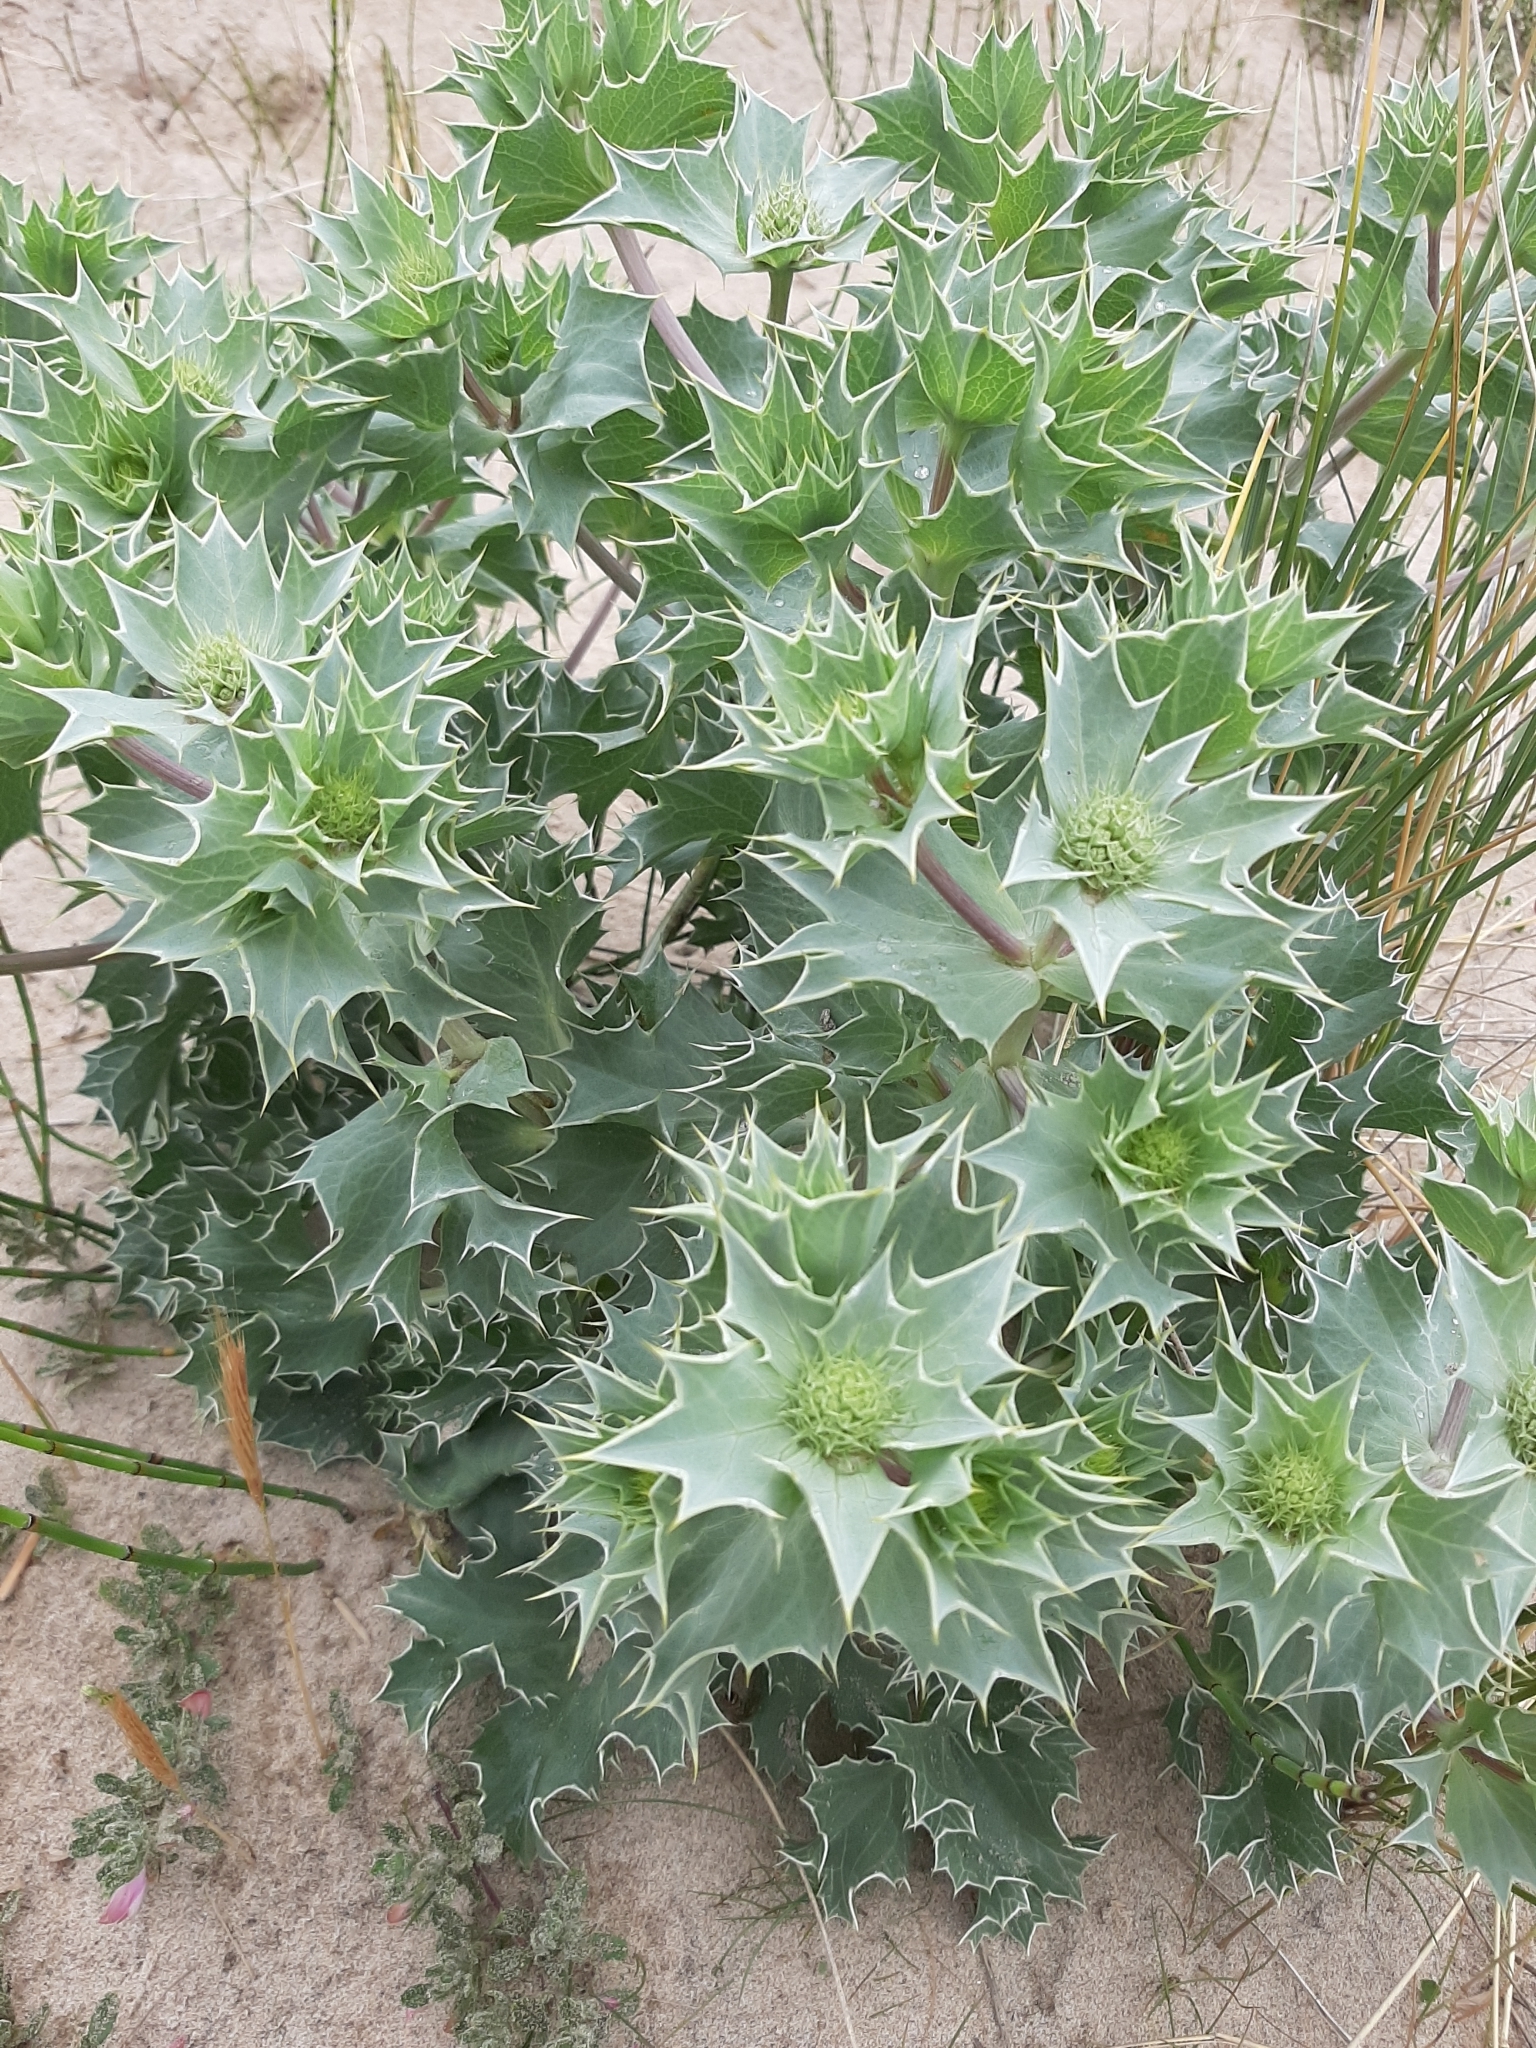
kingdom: Plantae
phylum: Tracheophyta
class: Magnoliopsida
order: Apiales
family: Apiaceae
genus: Eryngium
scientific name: Eryngium maritimum
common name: Sea-holly
